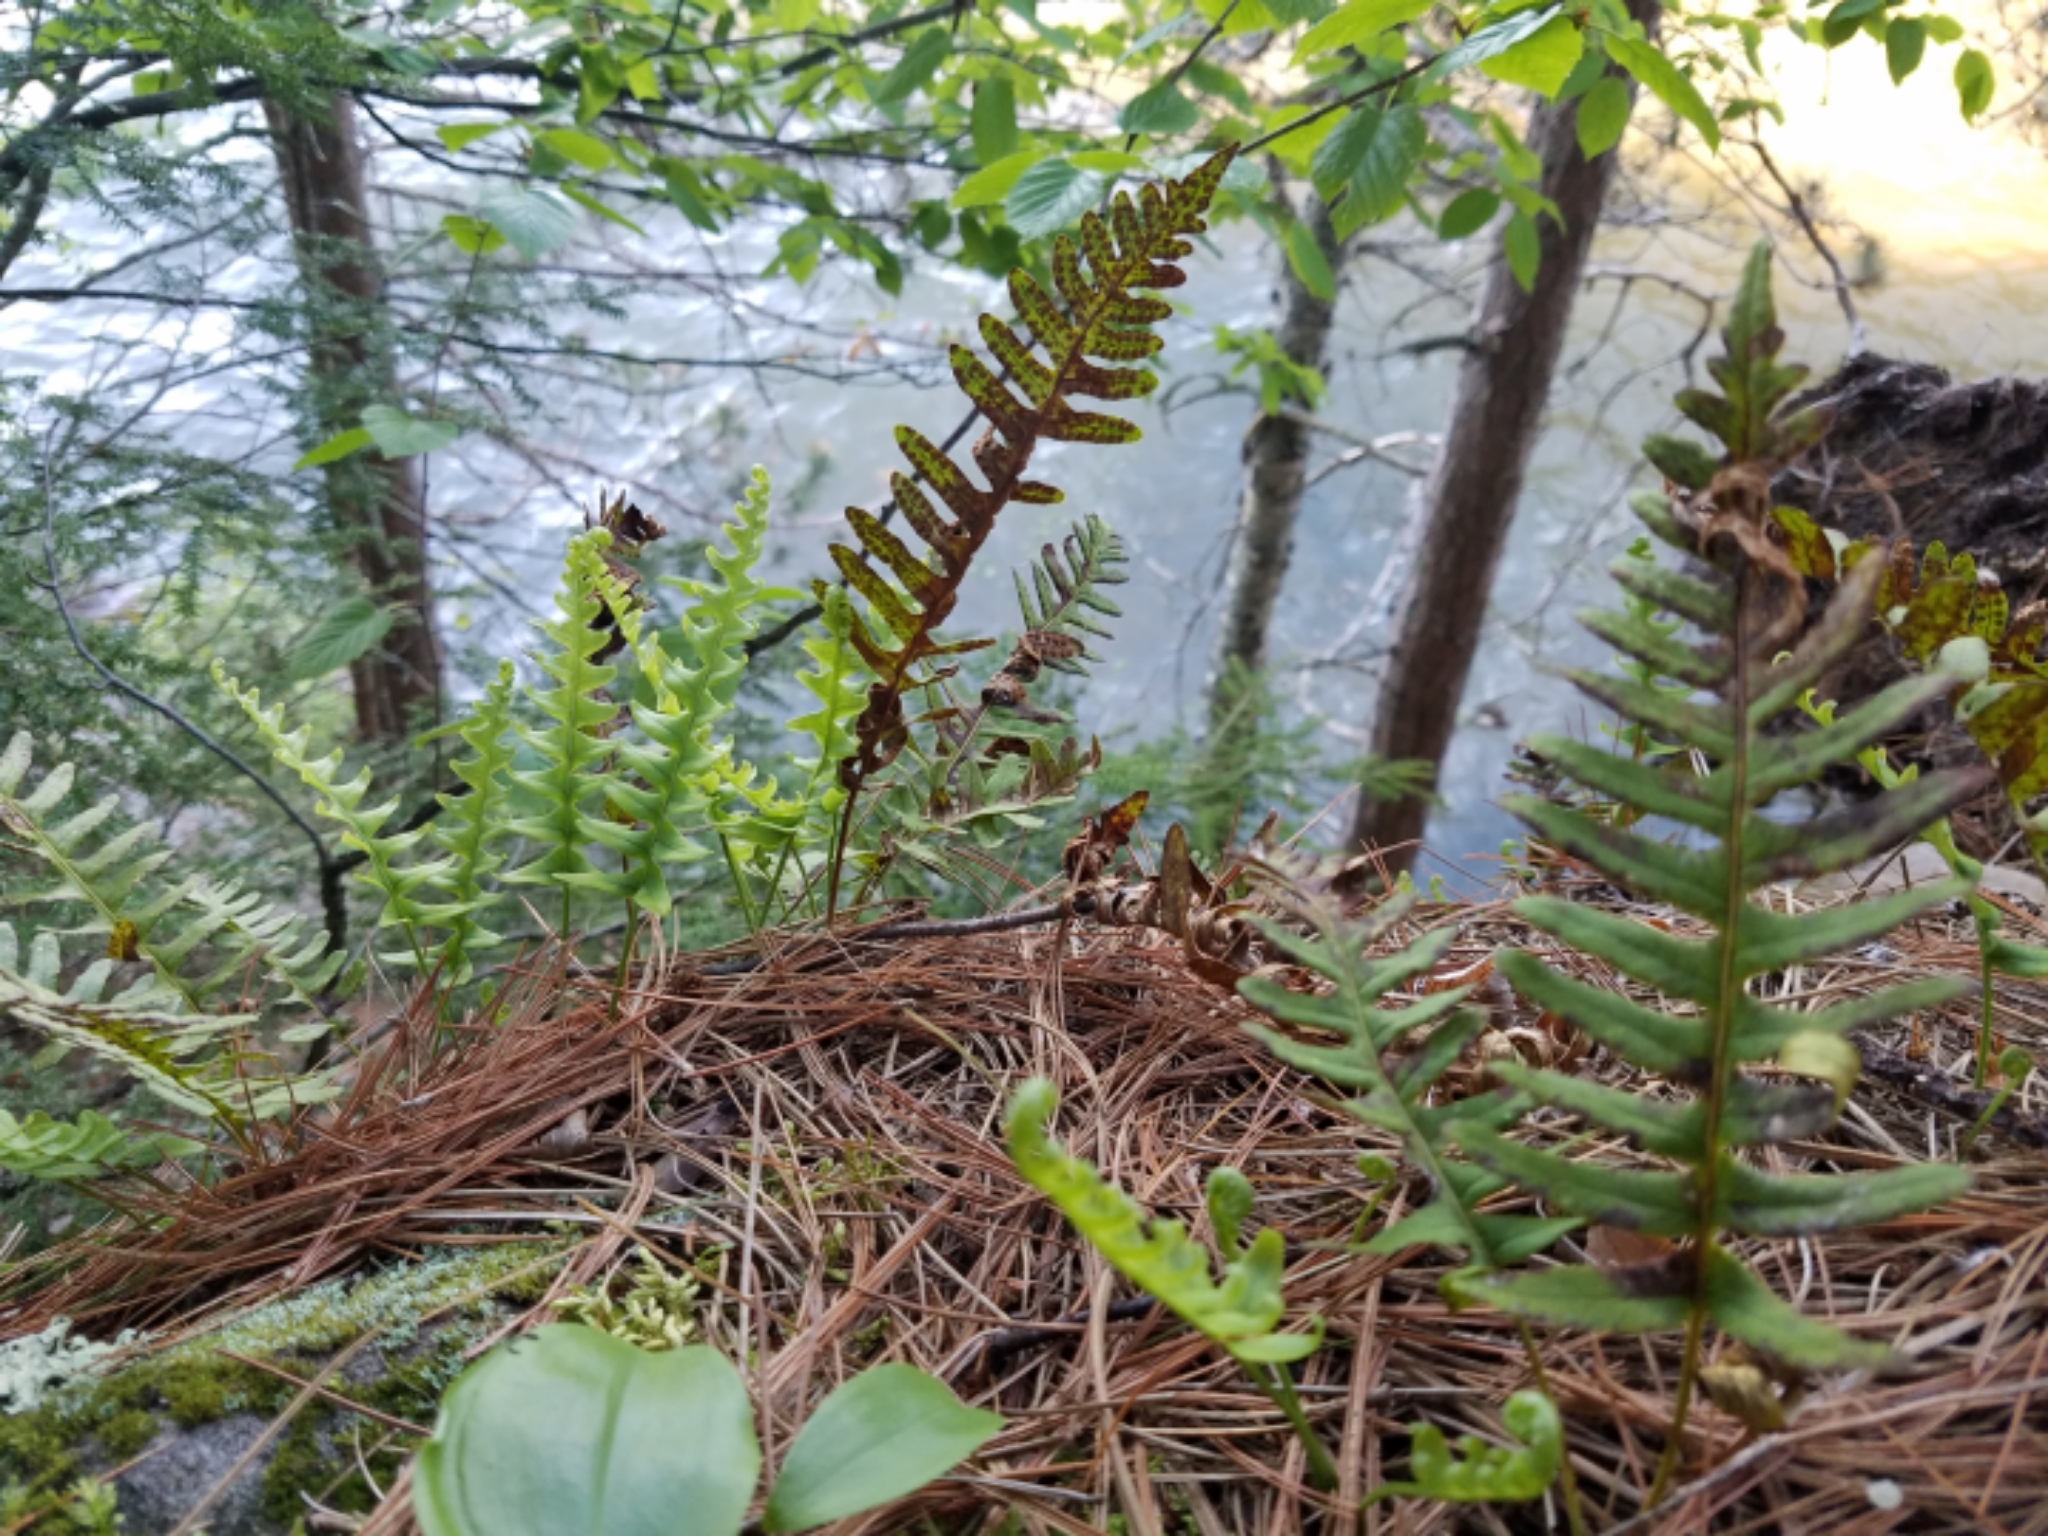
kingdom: Plantae
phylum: Tracheophyta
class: Polypodiopsida
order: Polypodiales
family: Polypodiaceae
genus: Polypodium
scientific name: Polypodium virginianum
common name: American wall fern
